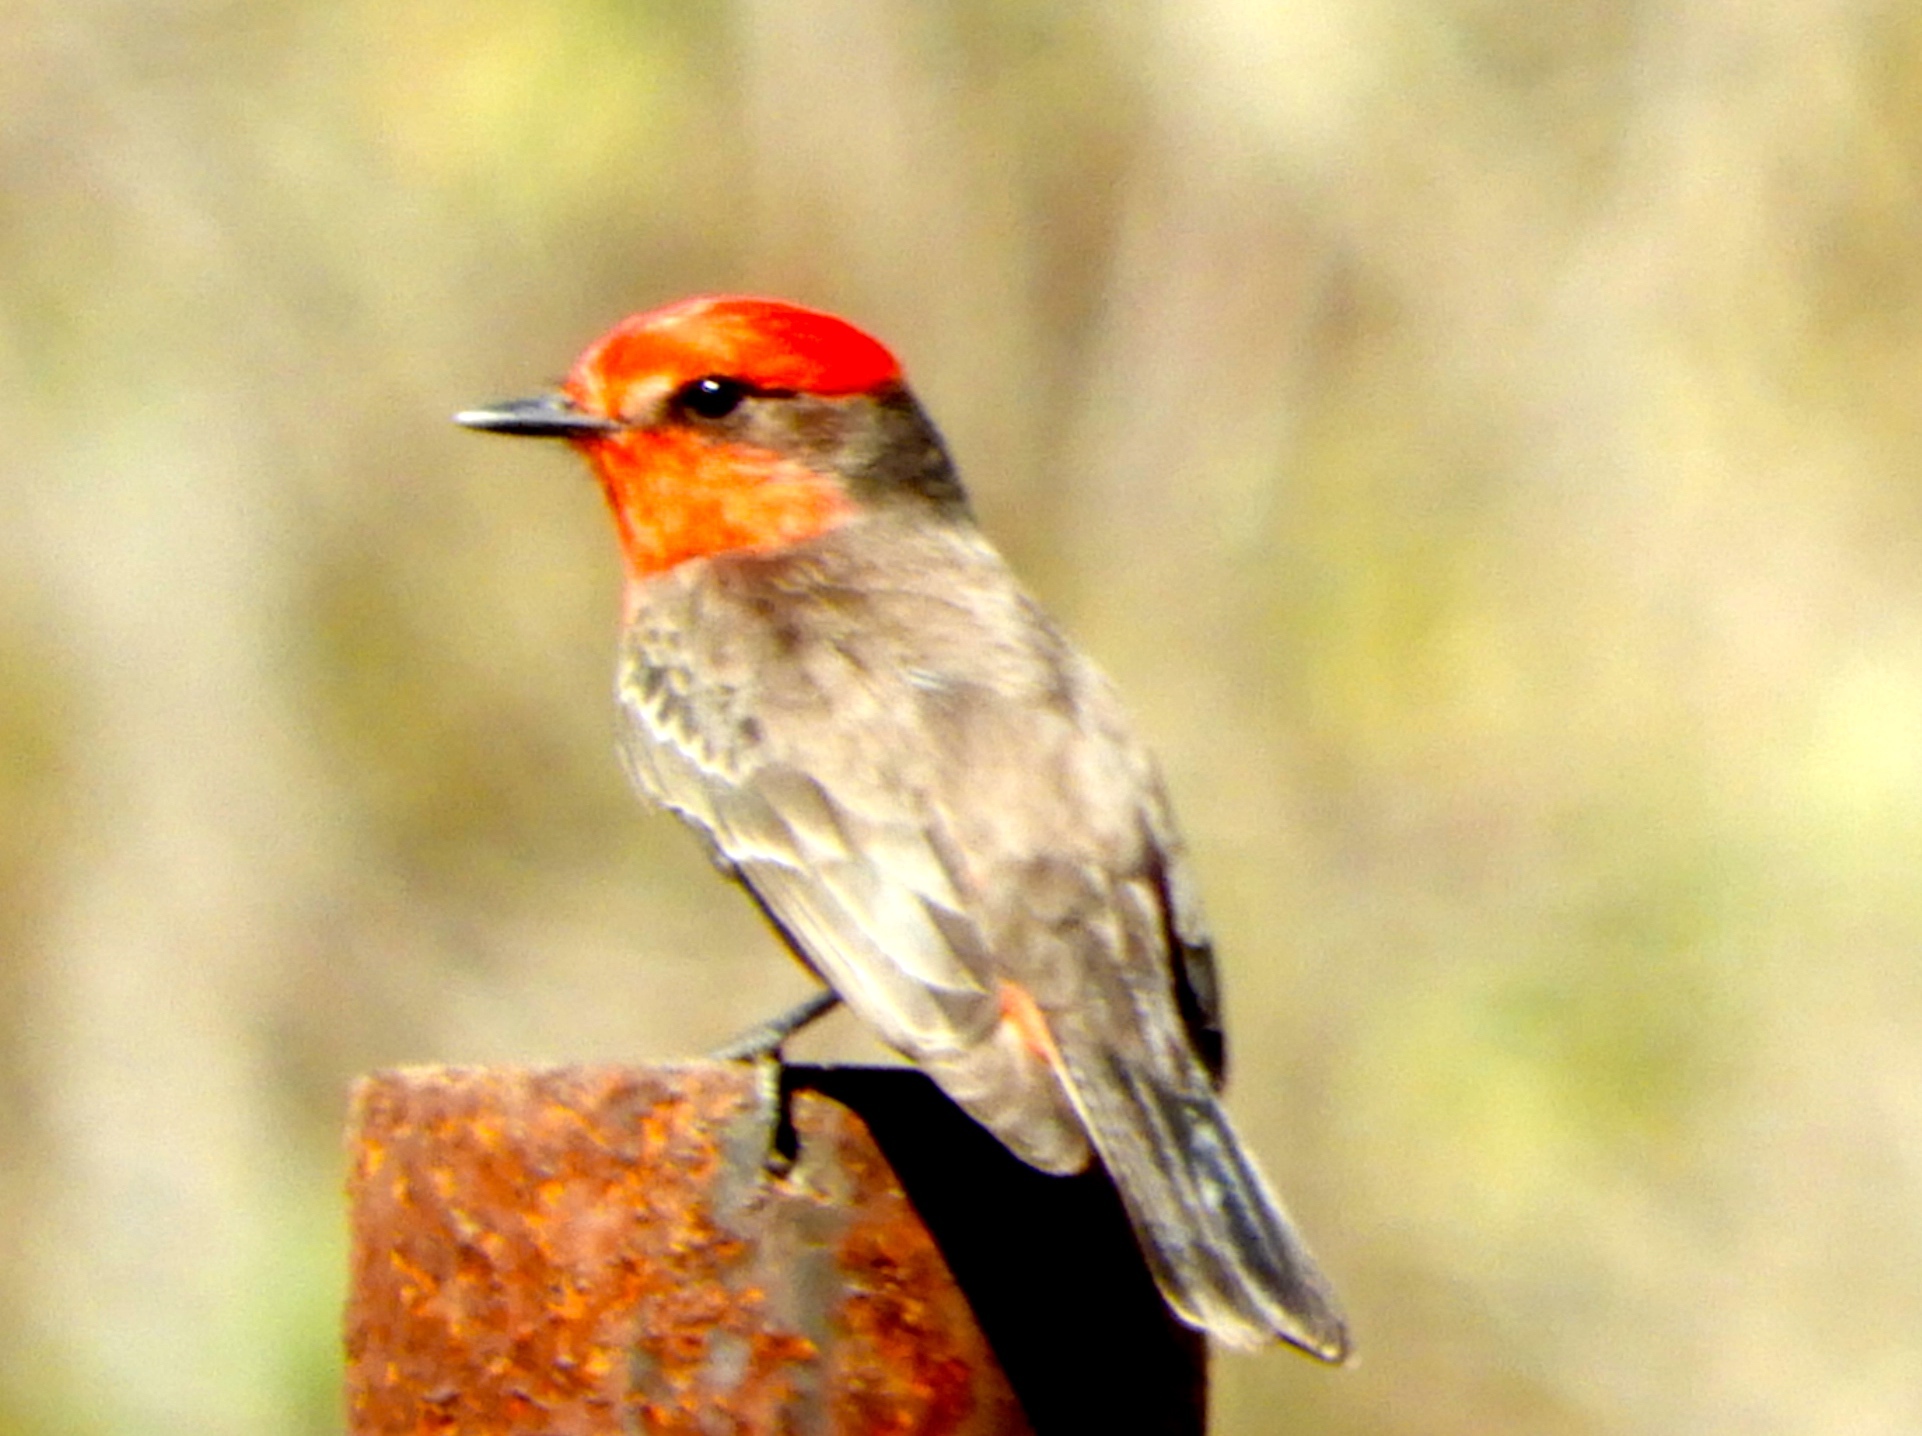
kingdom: Animalia
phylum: Chordata
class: Aves
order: Passeriformes
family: Tyrannidae
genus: Pyrocephalus
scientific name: Pyrocephalus rubinus
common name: Vermilion flycatcher
